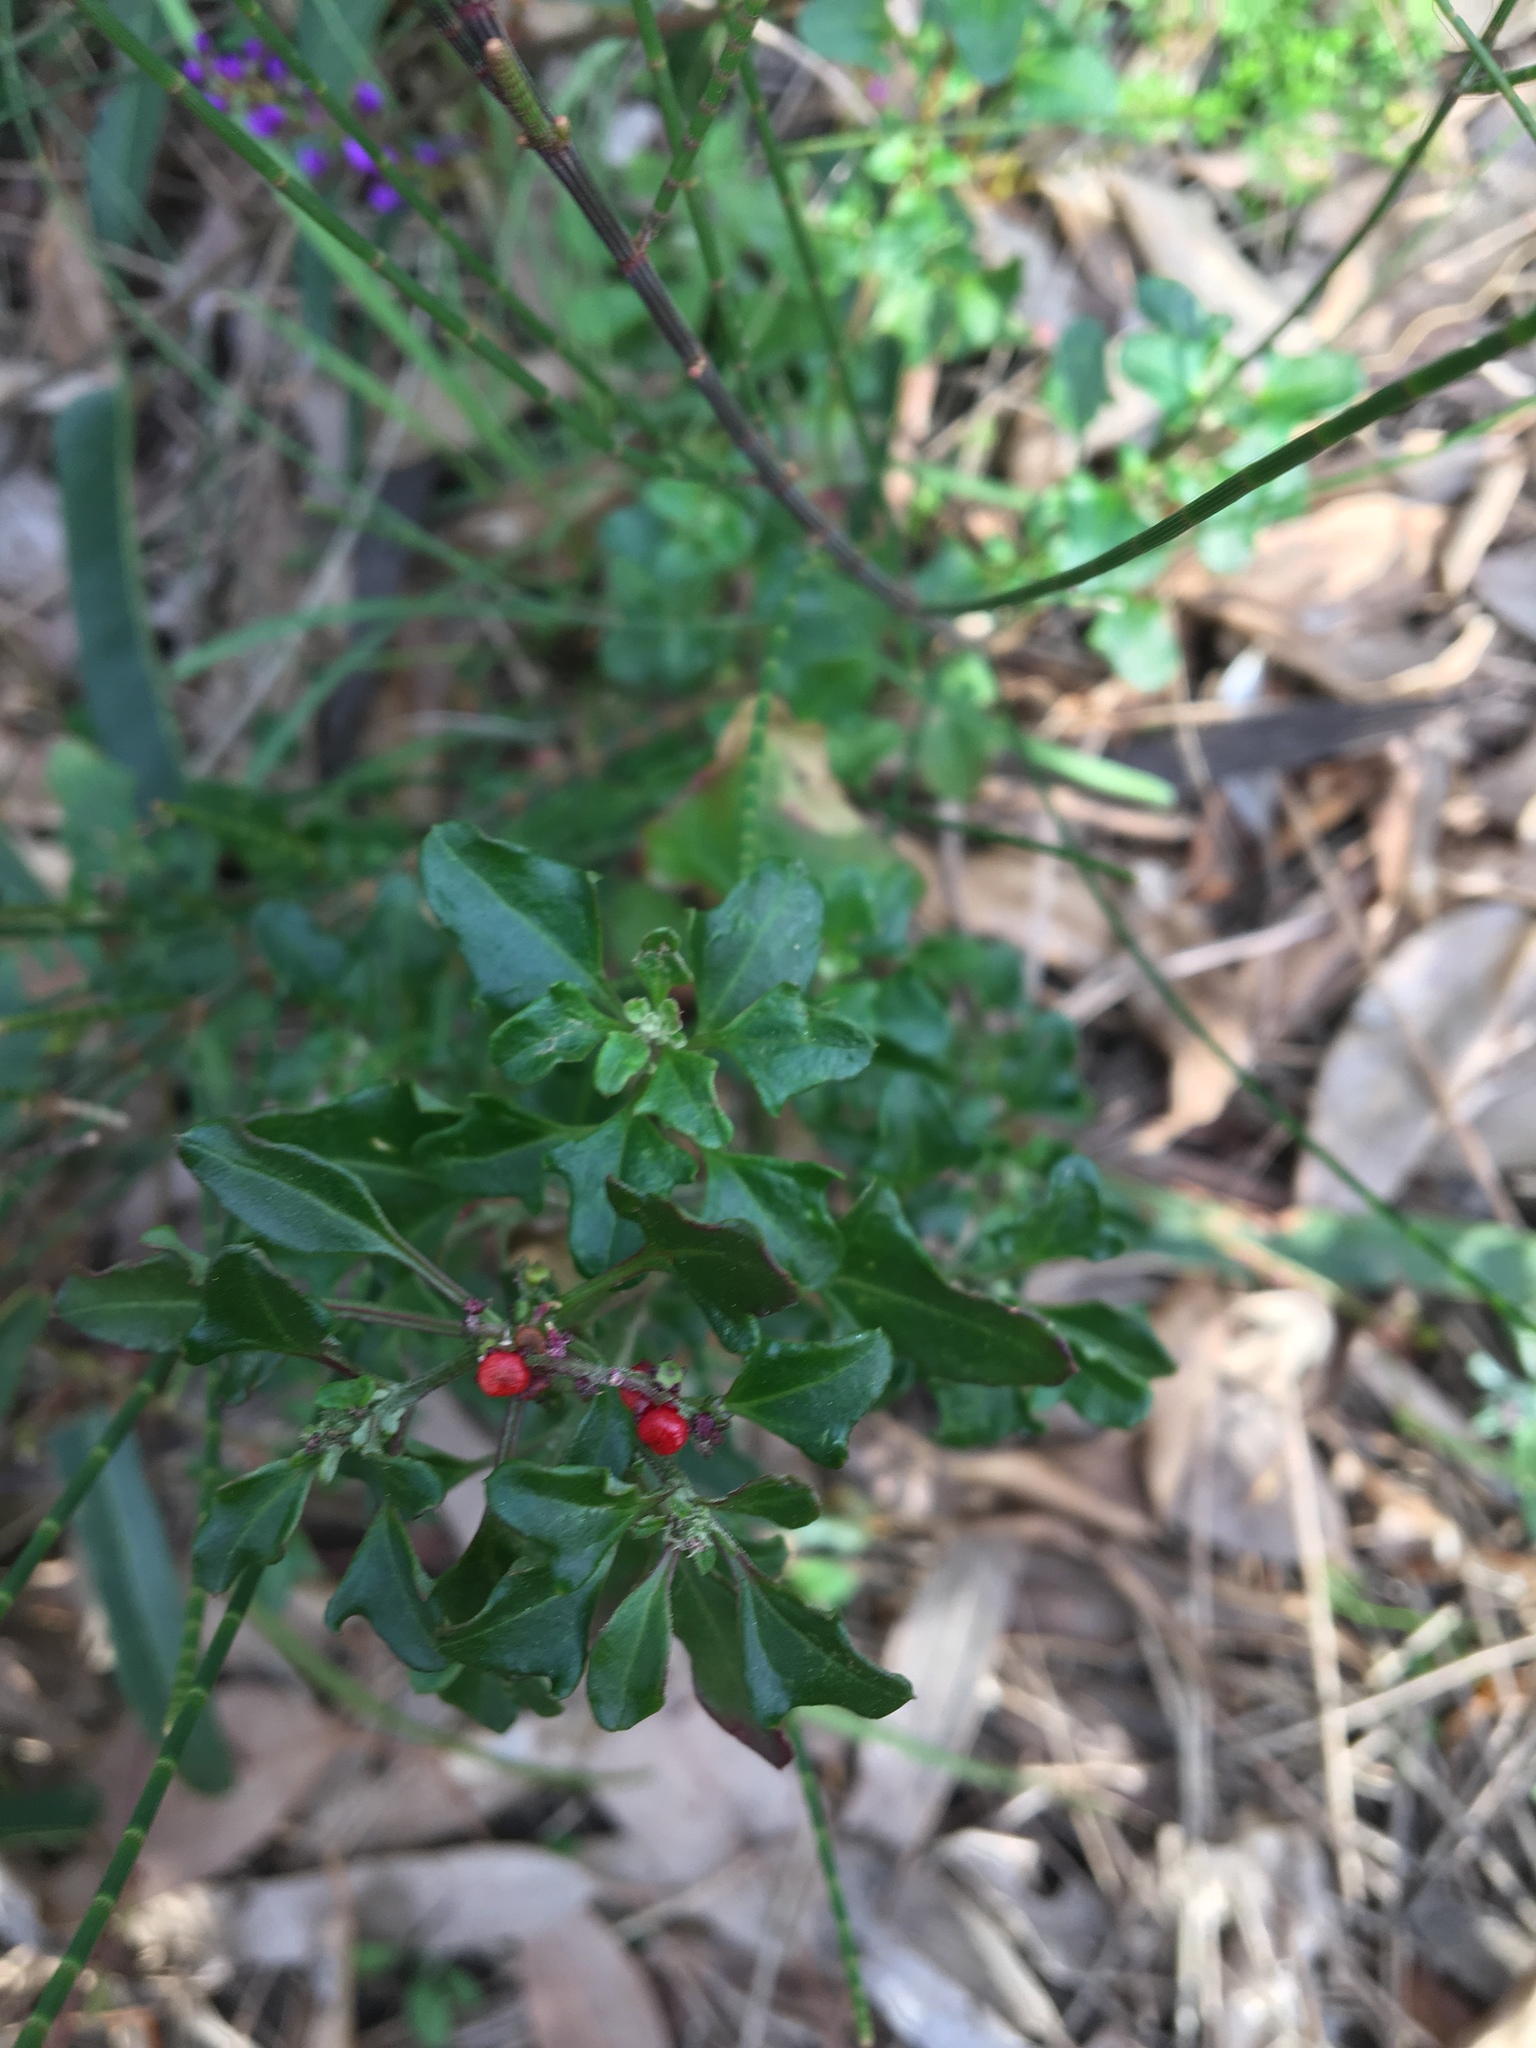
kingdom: Plantae
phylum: Tracheophyta
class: Magnoliopsida
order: Caryophyllales
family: Amaranthaceae
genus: Chenopodium
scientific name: Chenopodium robertianum
